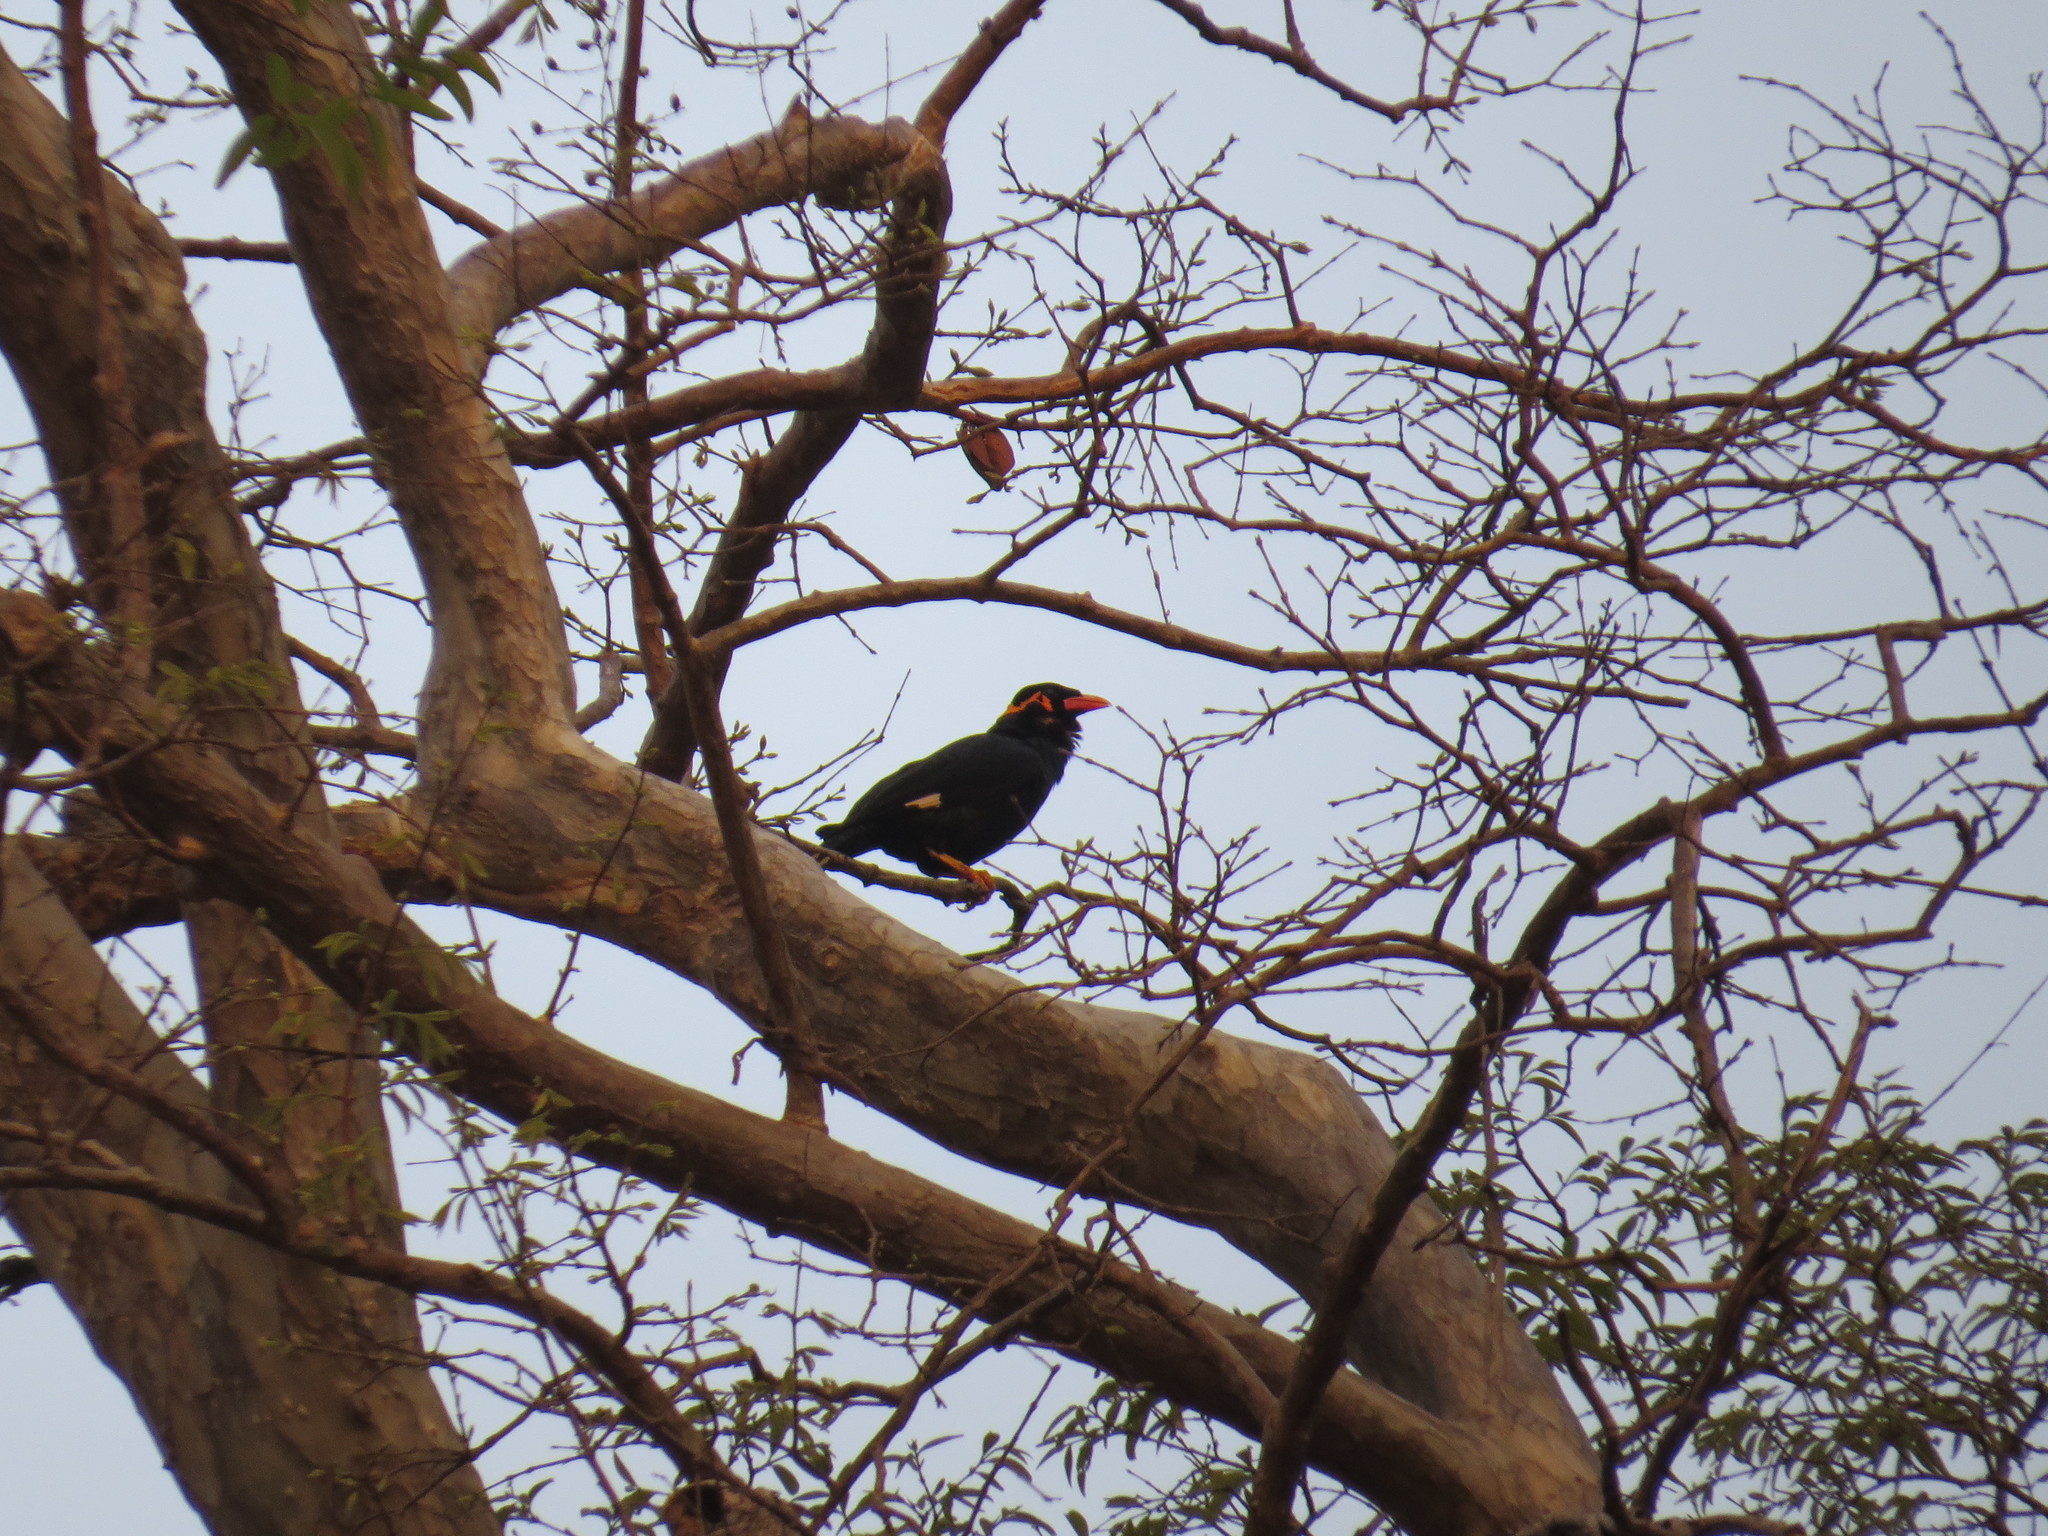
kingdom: Animalia
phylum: Chordata
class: Aves
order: Passeriformes
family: Sturnidae
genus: Gracula
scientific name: Gracula religiosa
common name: Common hill myna
